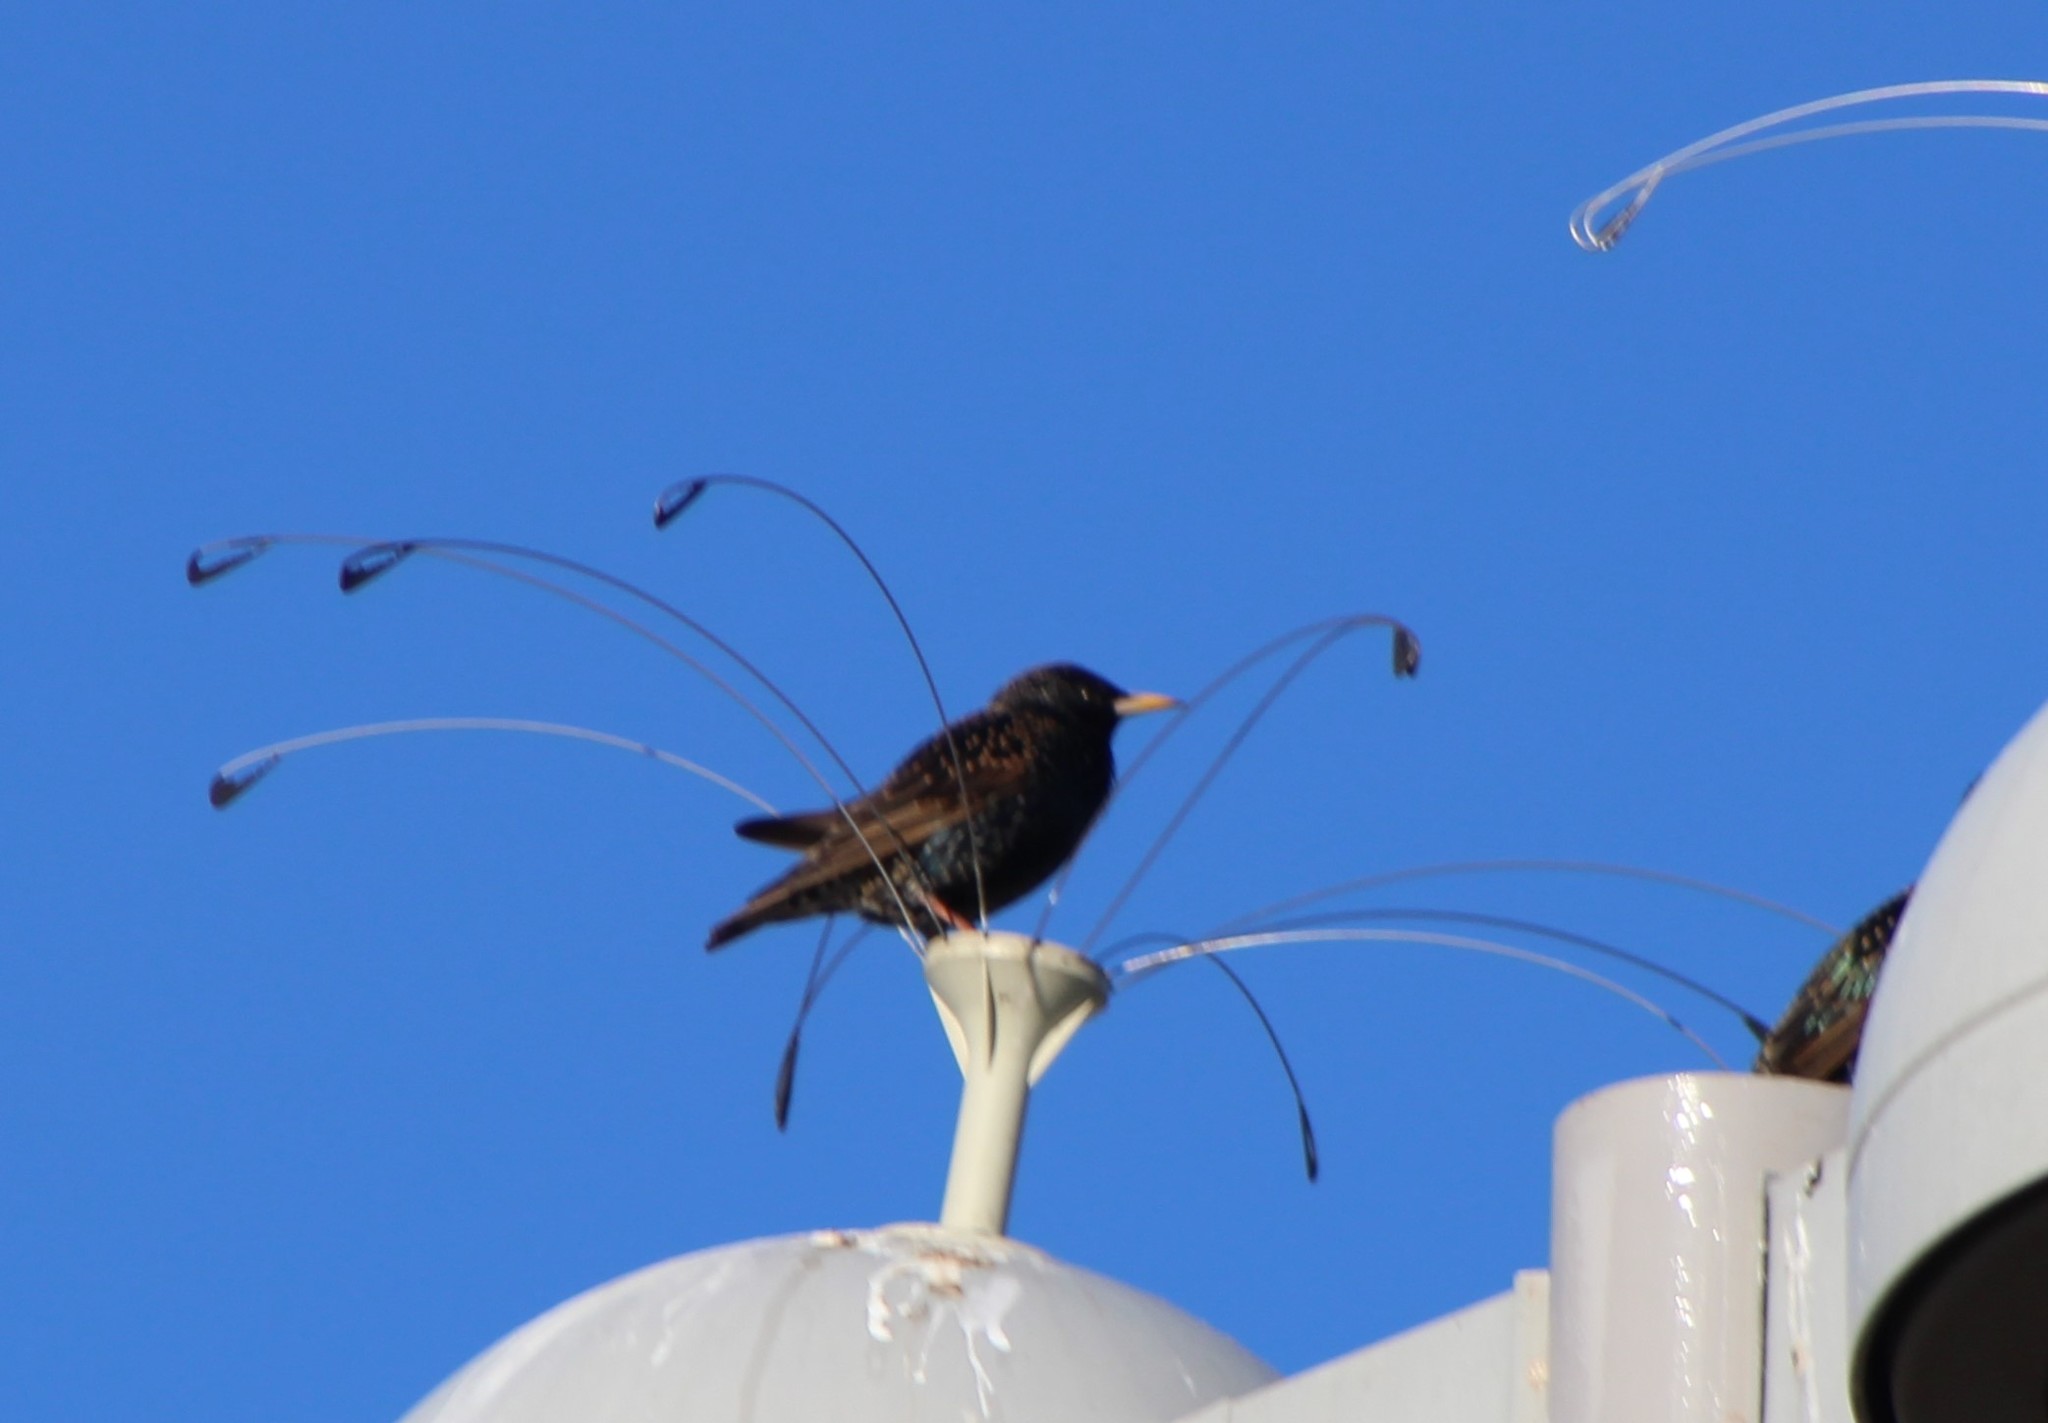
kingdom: Animalia
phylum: Chordata
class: Aves
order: Passeriformes
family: Sturnidae
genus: Sturnus
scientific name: Sturnus vulgaris
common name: Common starling
